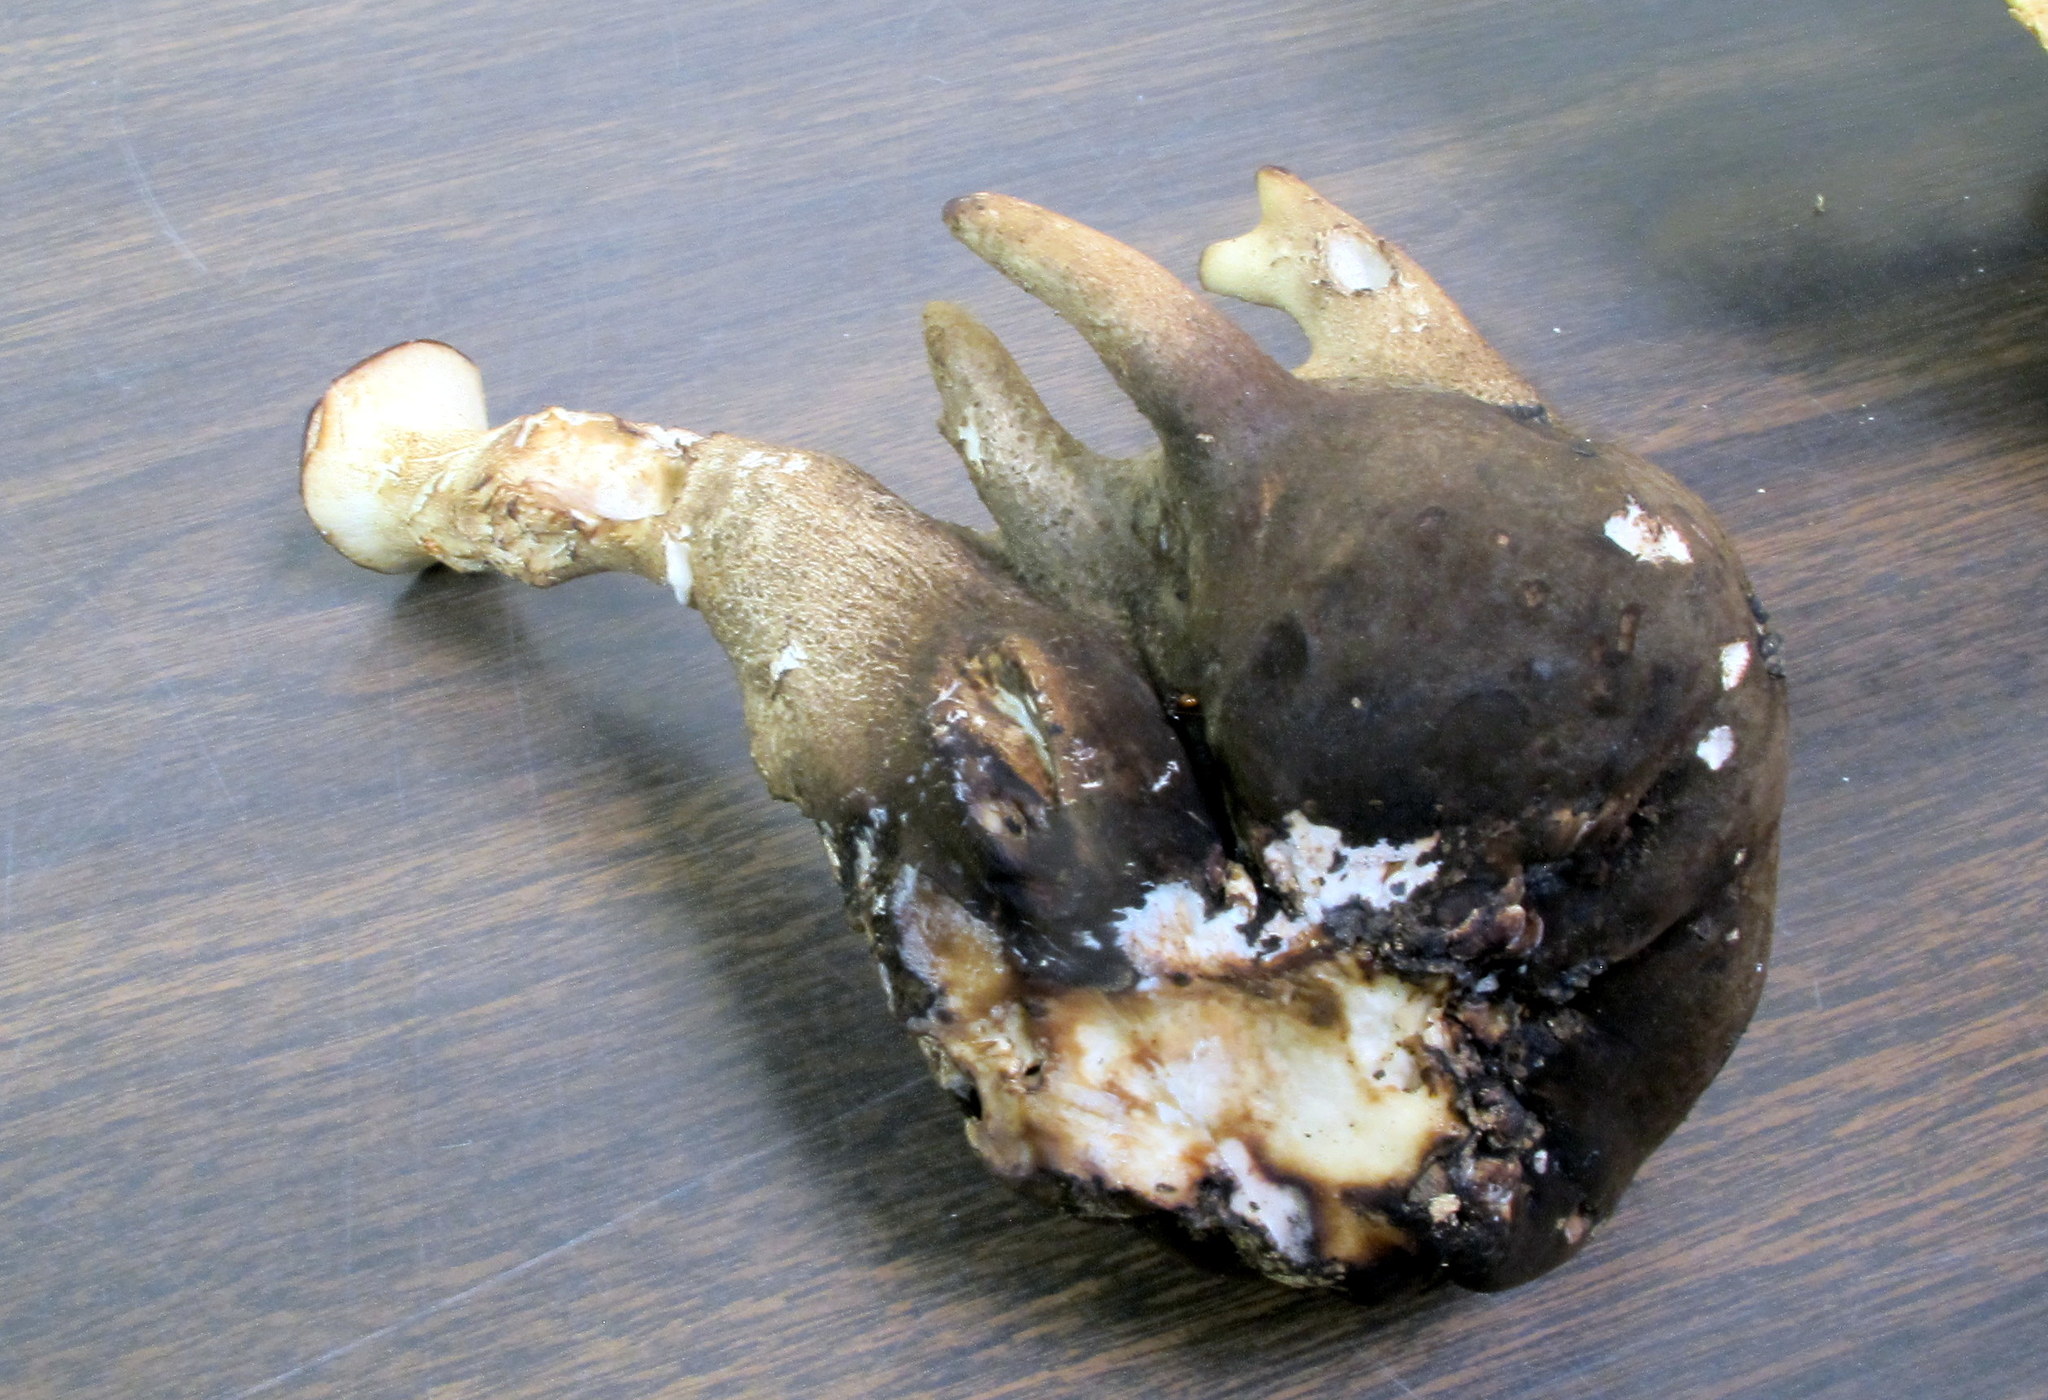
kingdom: Fungi
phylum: Basidiomycota
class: Agaricomycetes
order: Polyporales
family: Polyporaceae
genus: Cerioporus
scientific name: Cerioporus squamosus
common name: Dryad's saddle
